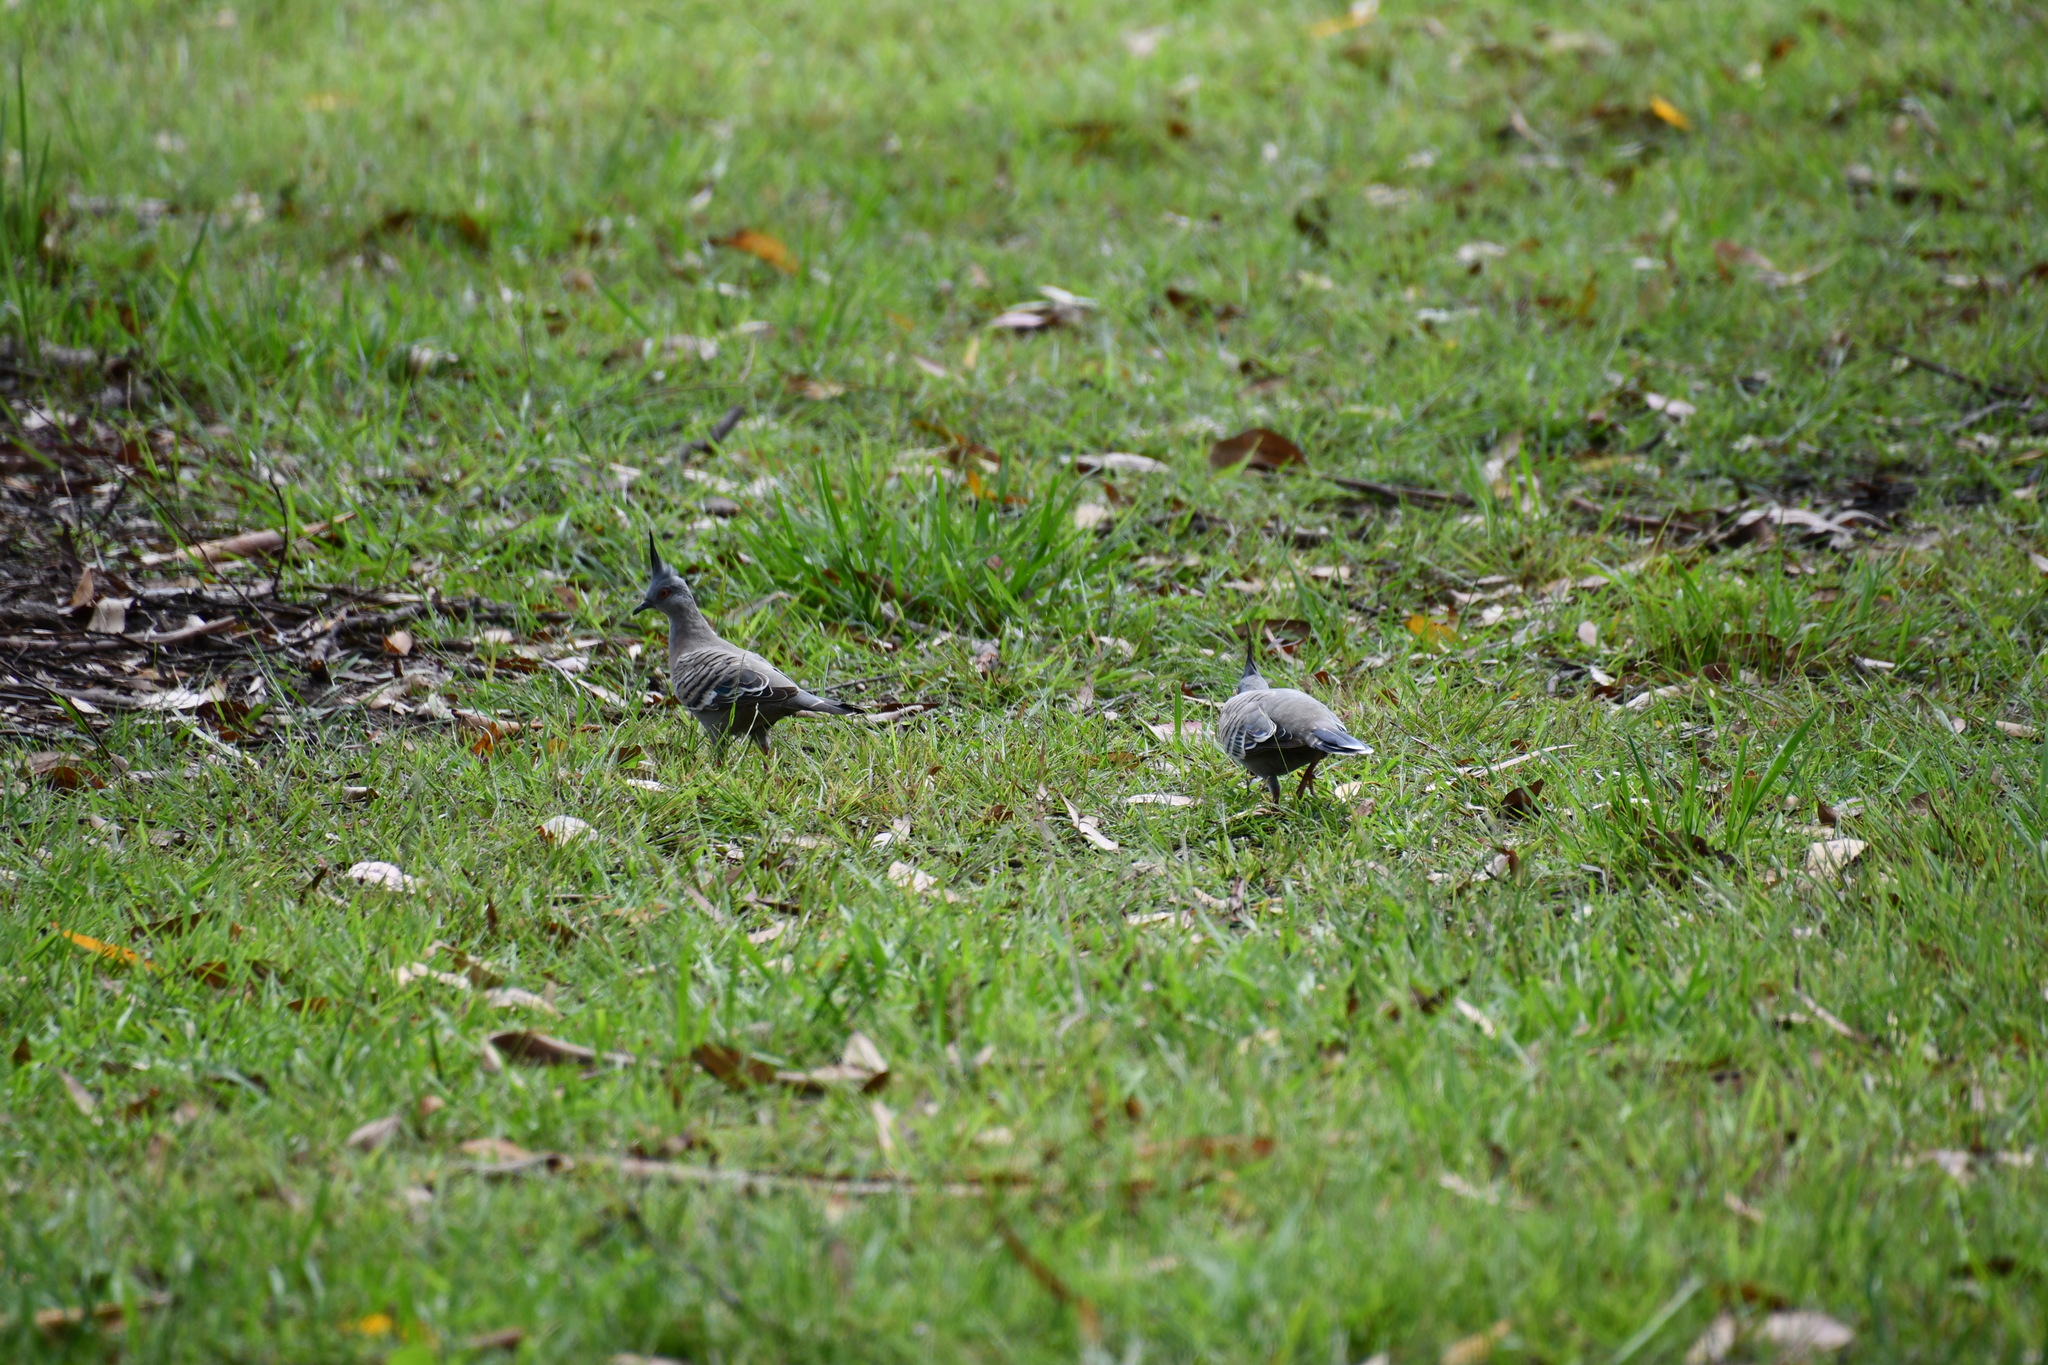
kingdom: Animalia
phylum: Chordata
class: Aves
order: Columbiformes
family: Columbidae
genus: Ocyphaps
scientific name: Ocyphaps lophotes
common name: Crested pigeon
